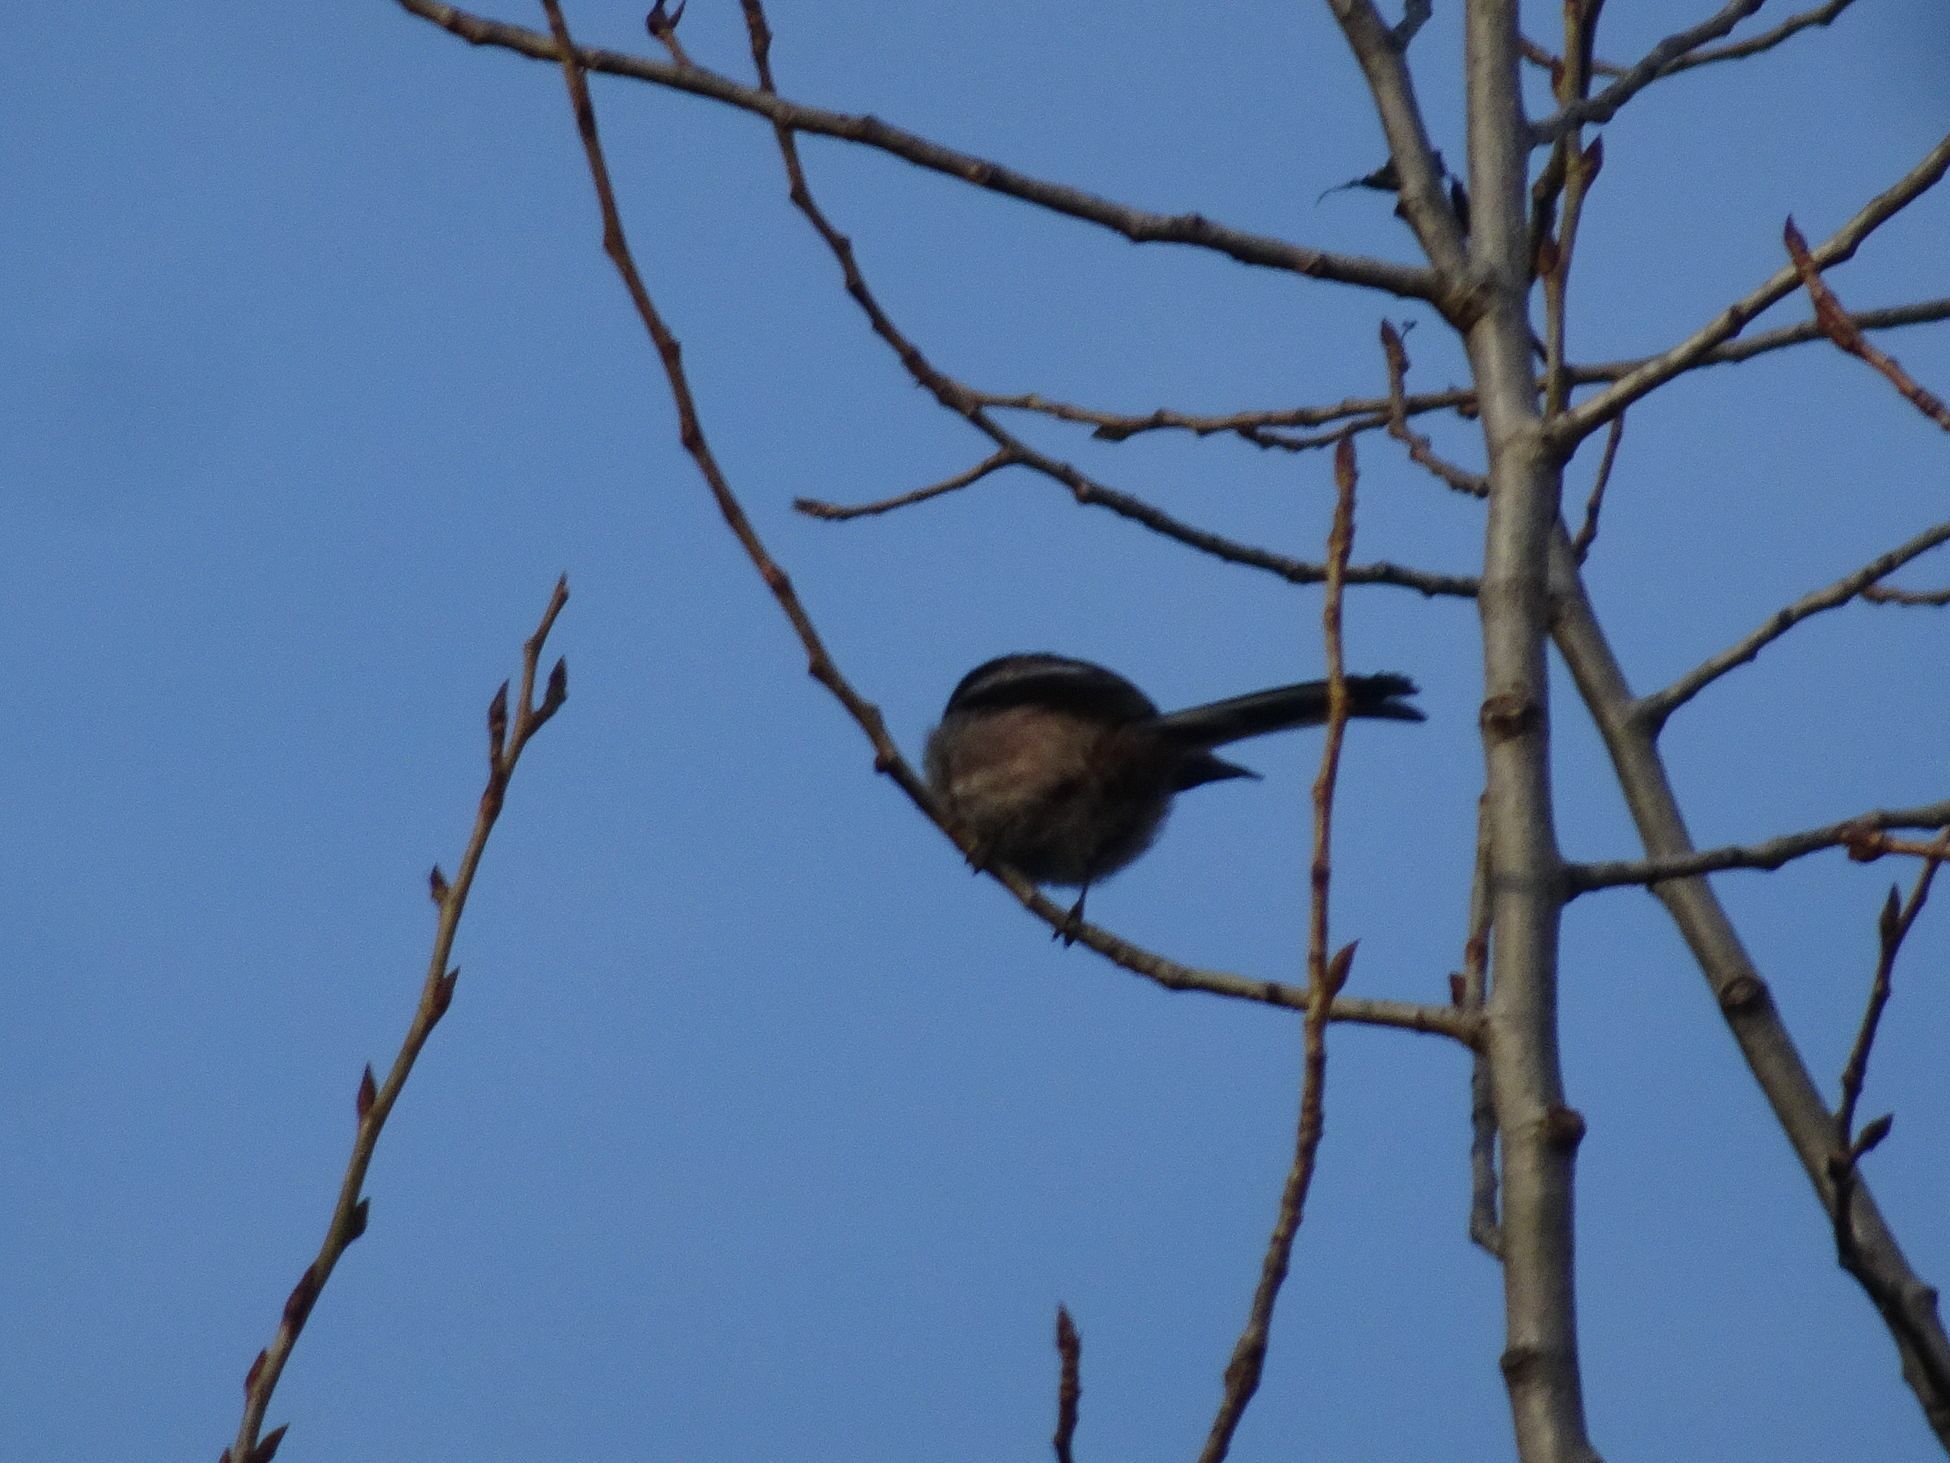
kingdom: Animalia
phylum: Chordata
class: Aves
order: Passeriformes
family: Aegithalidae
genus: Aegithalos
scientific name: Aegithalos caudatus
